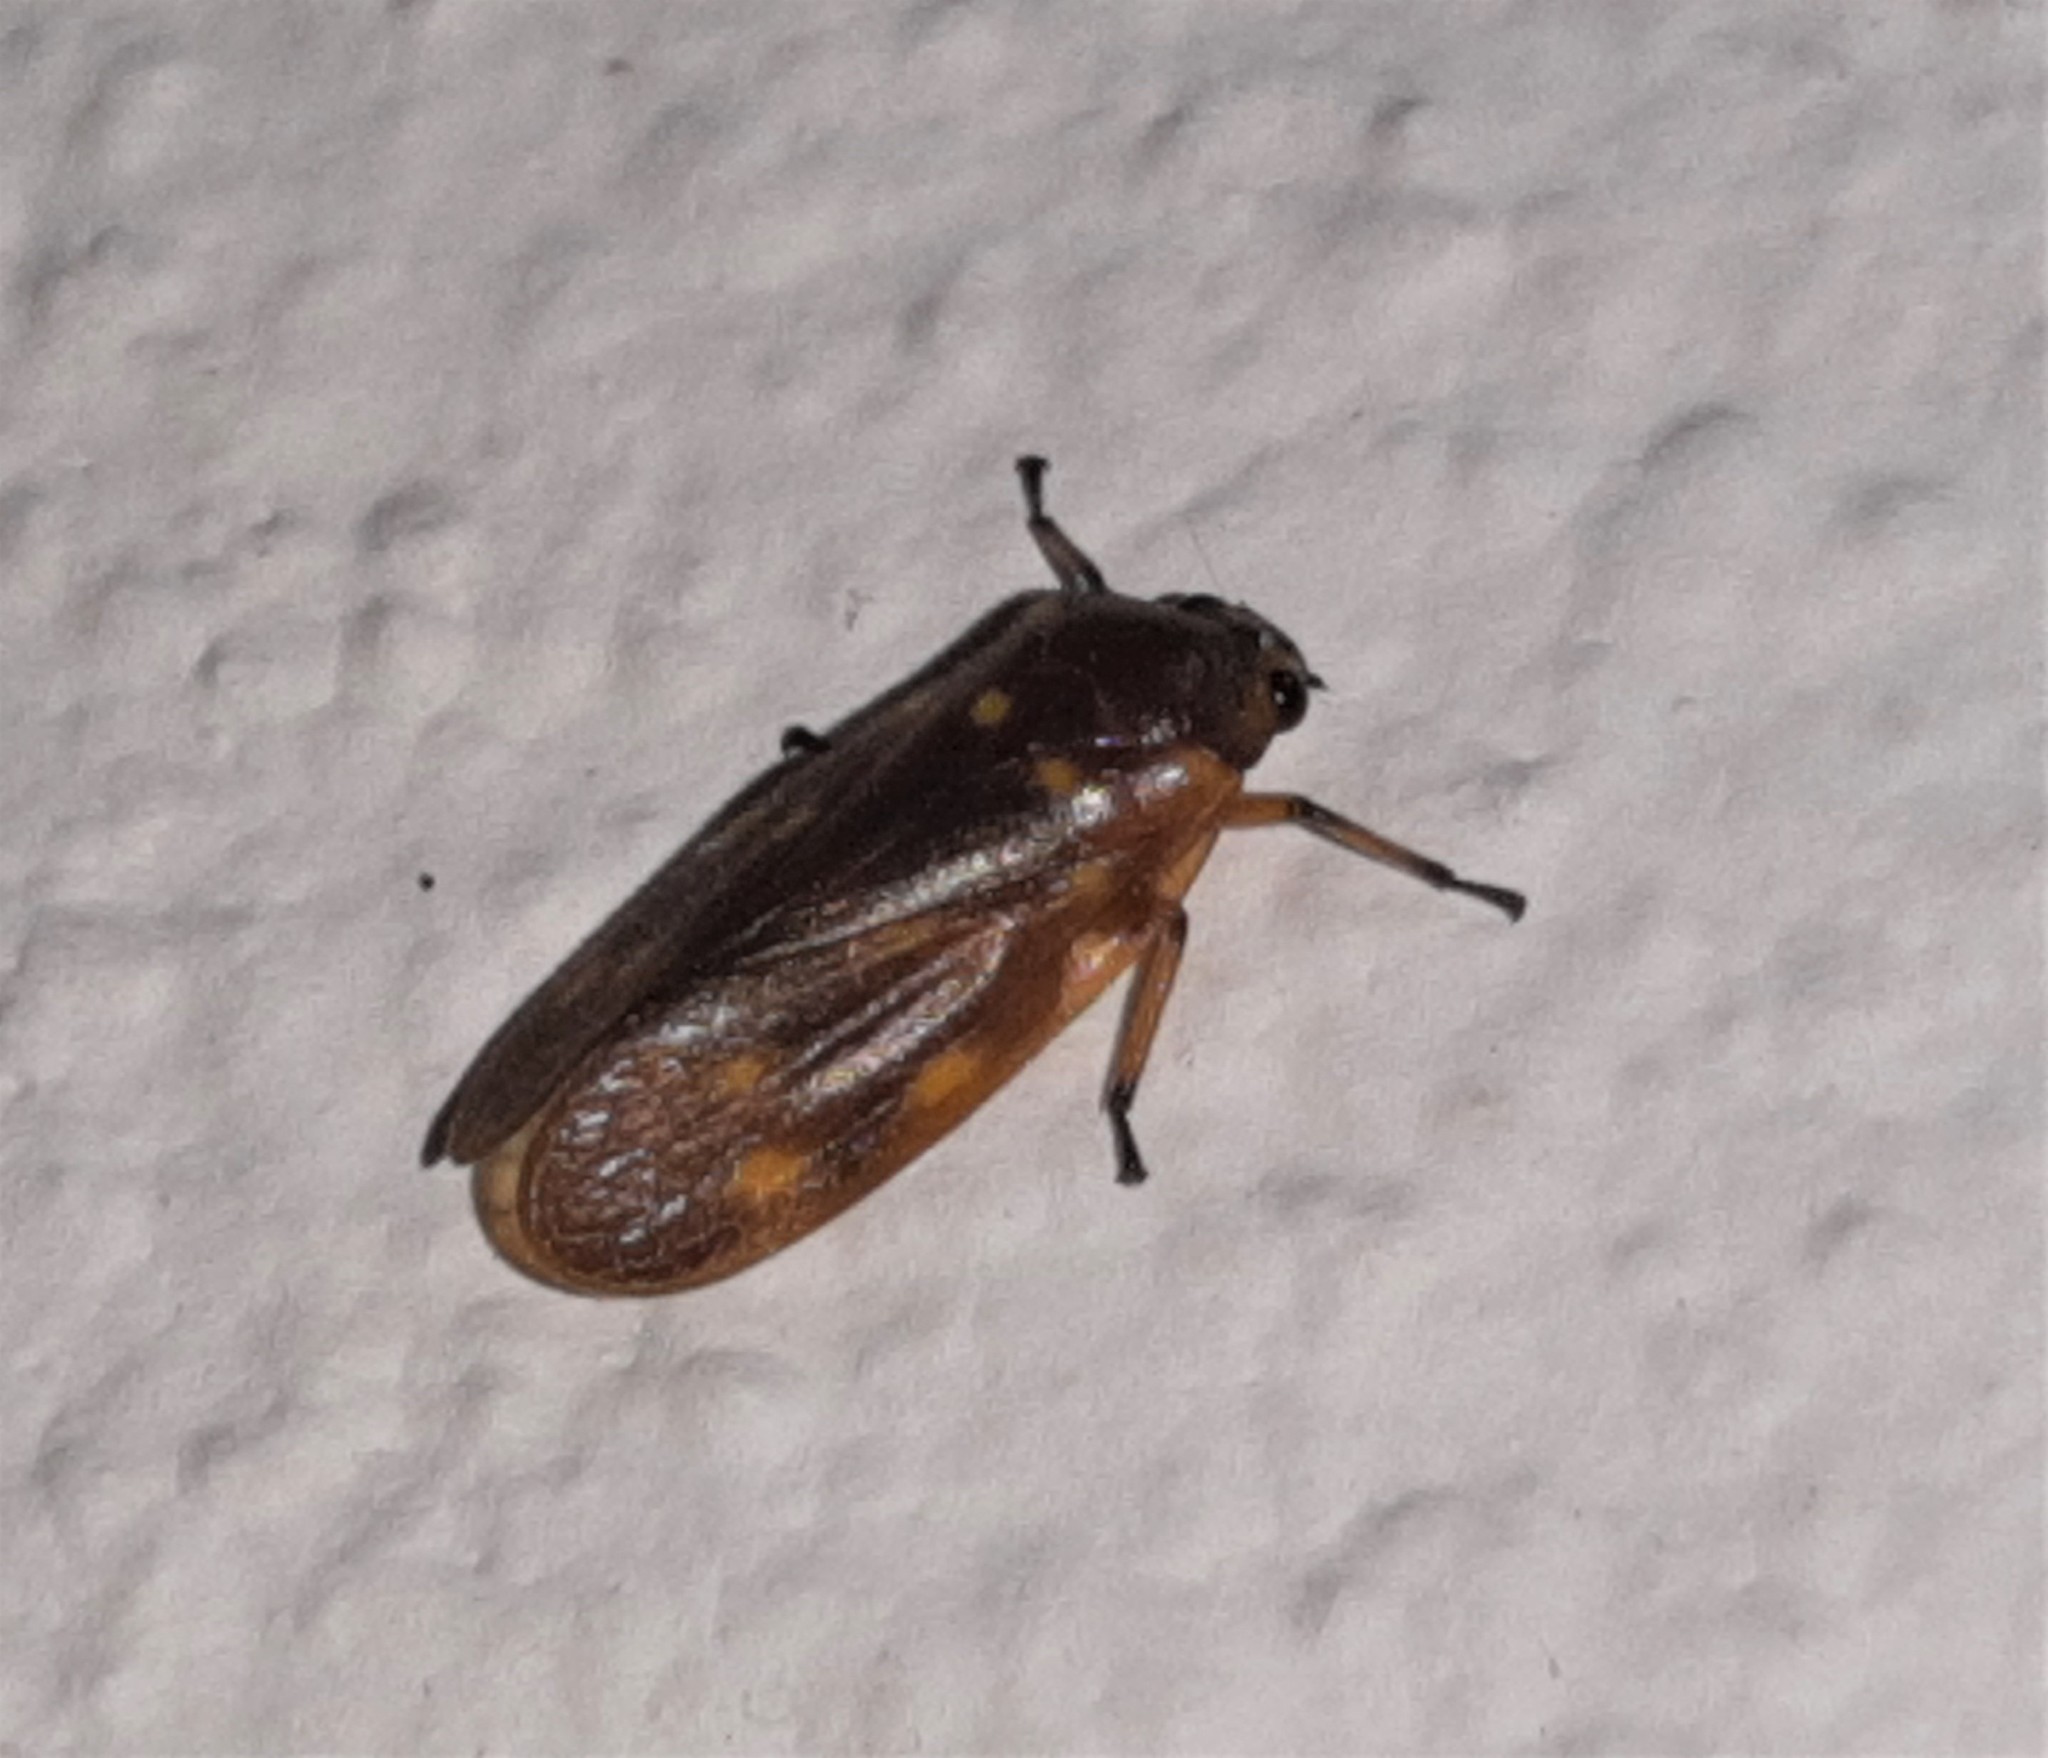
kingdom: Animalia
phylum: Arthropoda
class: Insecta
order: Hemiptera
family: Cercopidae
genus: Ocoaxo
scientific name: Ocoaxo septemnotatus
